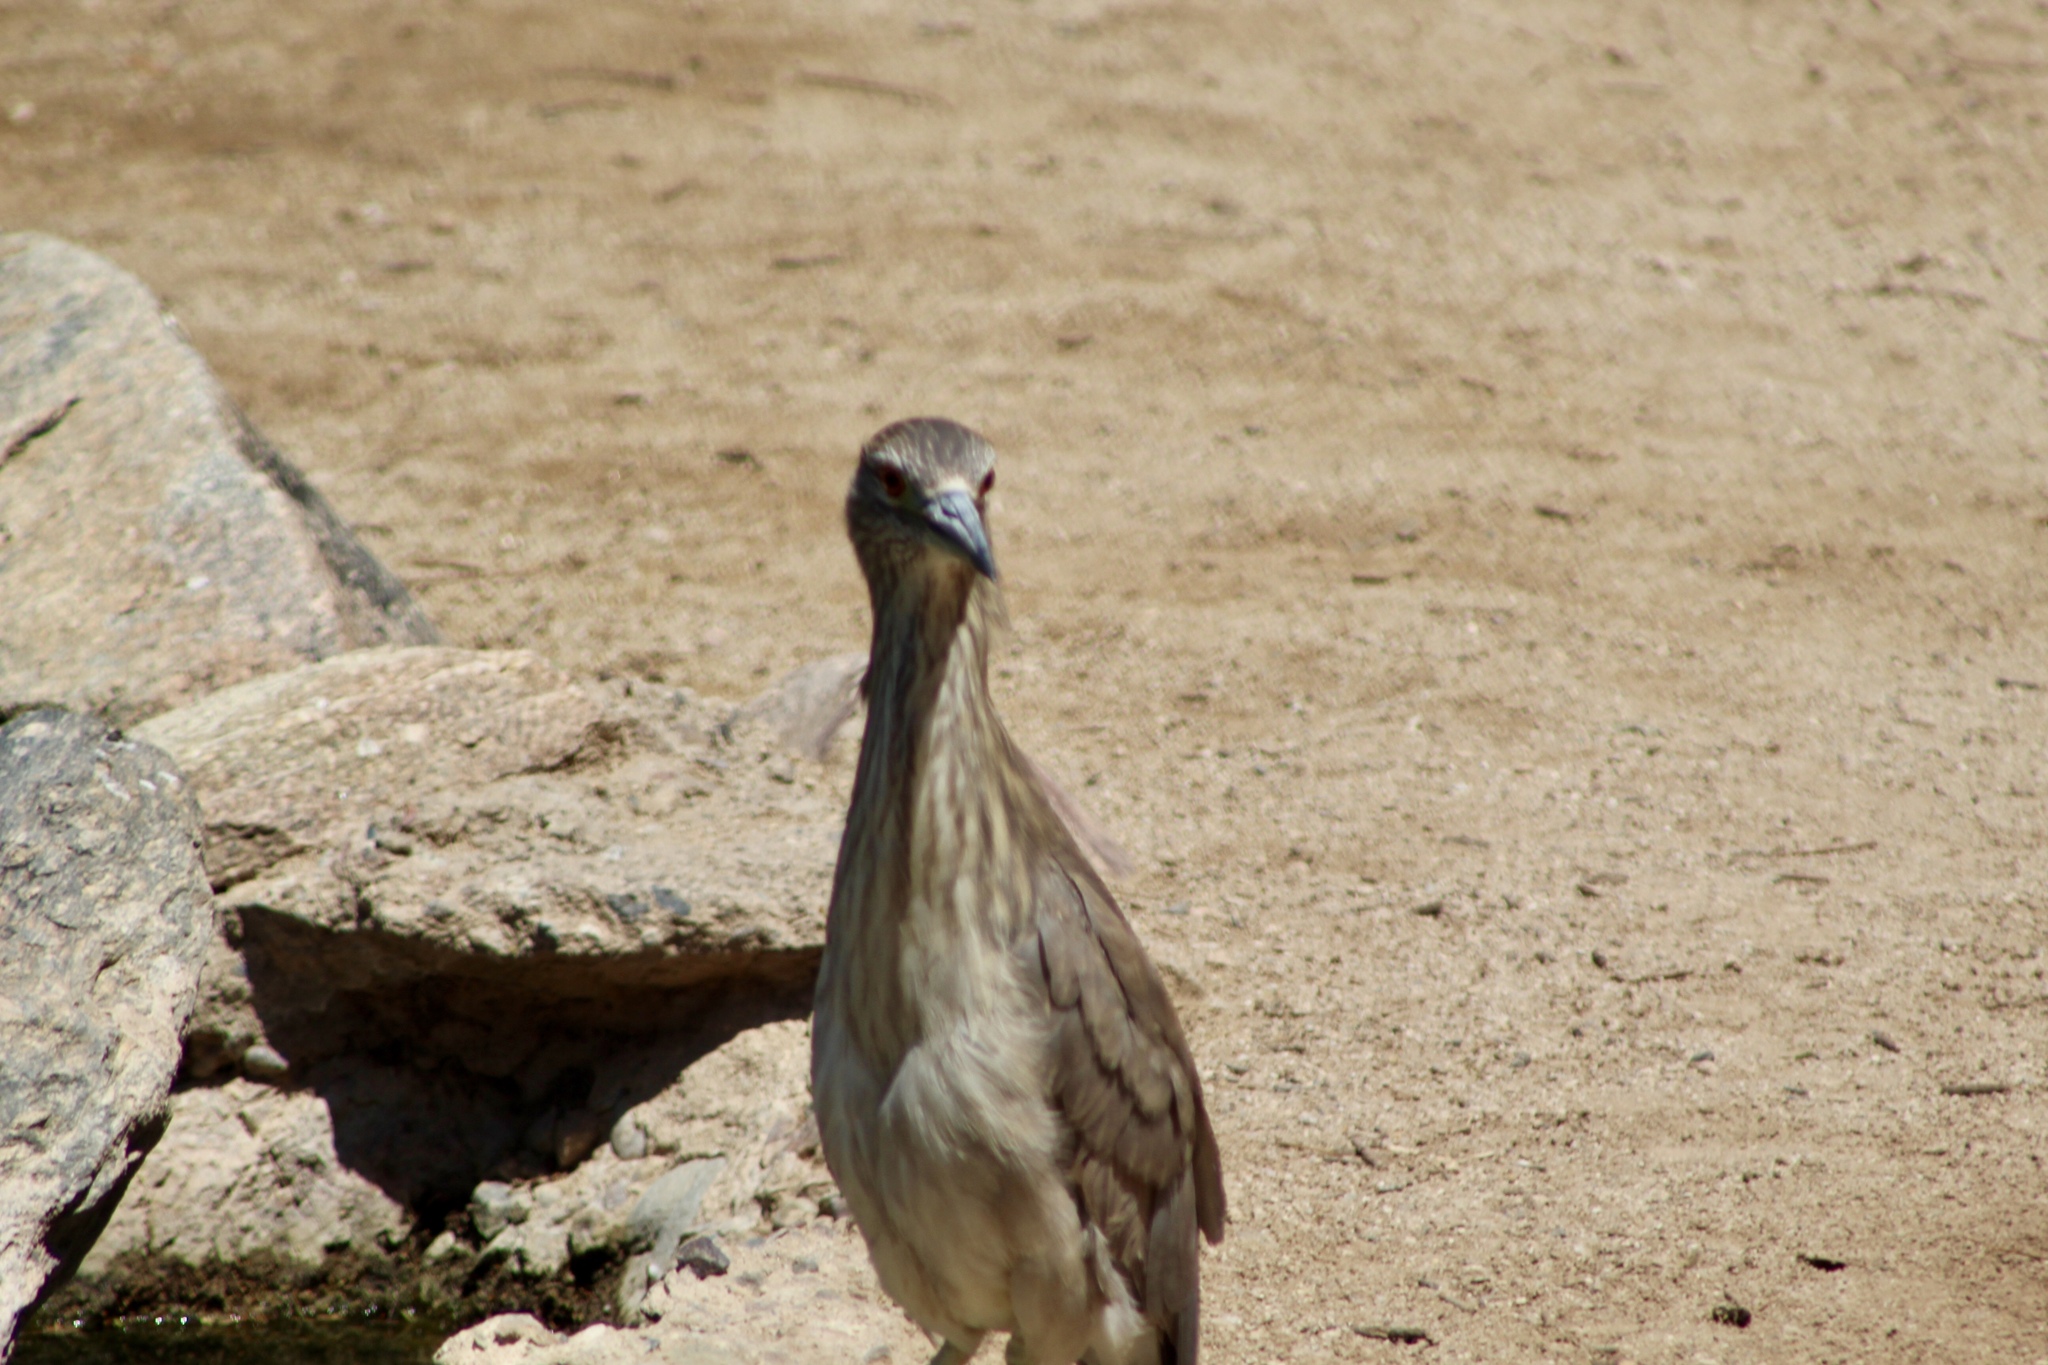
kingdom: Animalia
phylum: Chordata
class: Aves
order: Pelecaniformes
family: Ardeidae
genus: Nycticorax
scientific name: Nycticorax nycticorax
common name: Black-crowned night heron
